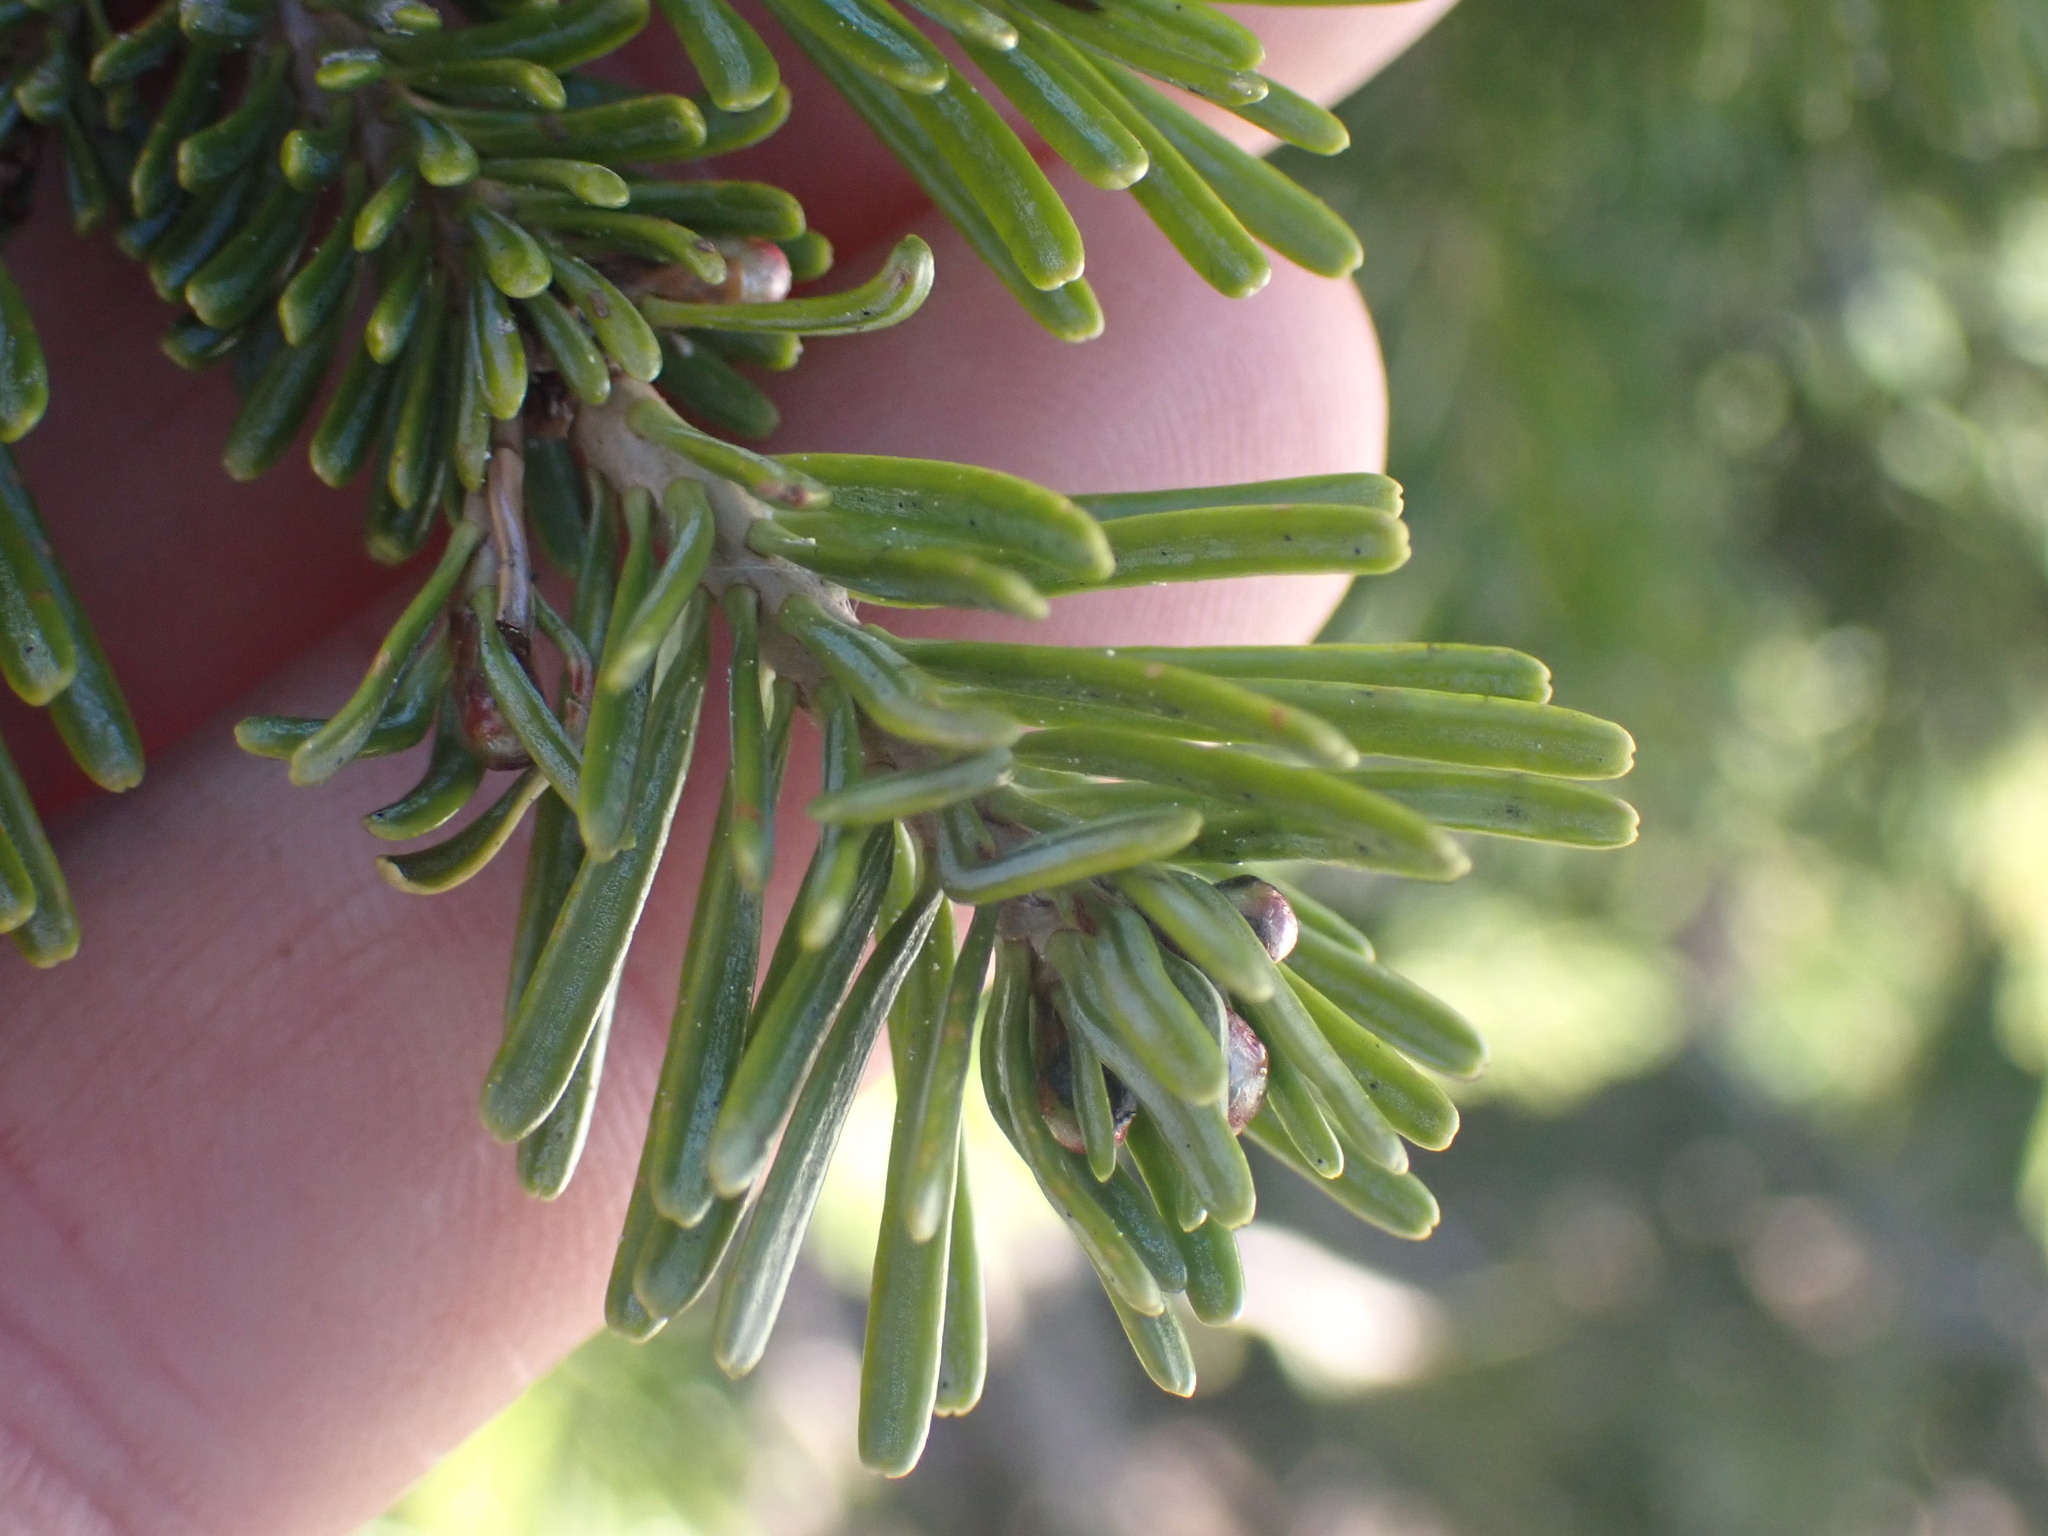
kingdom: Plantae
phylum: Tracheophyta
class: Pinopsida
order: Pinales
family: Pinaceae
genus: Abies
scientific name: Abies lasiocarpa
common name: Subalpine fir
